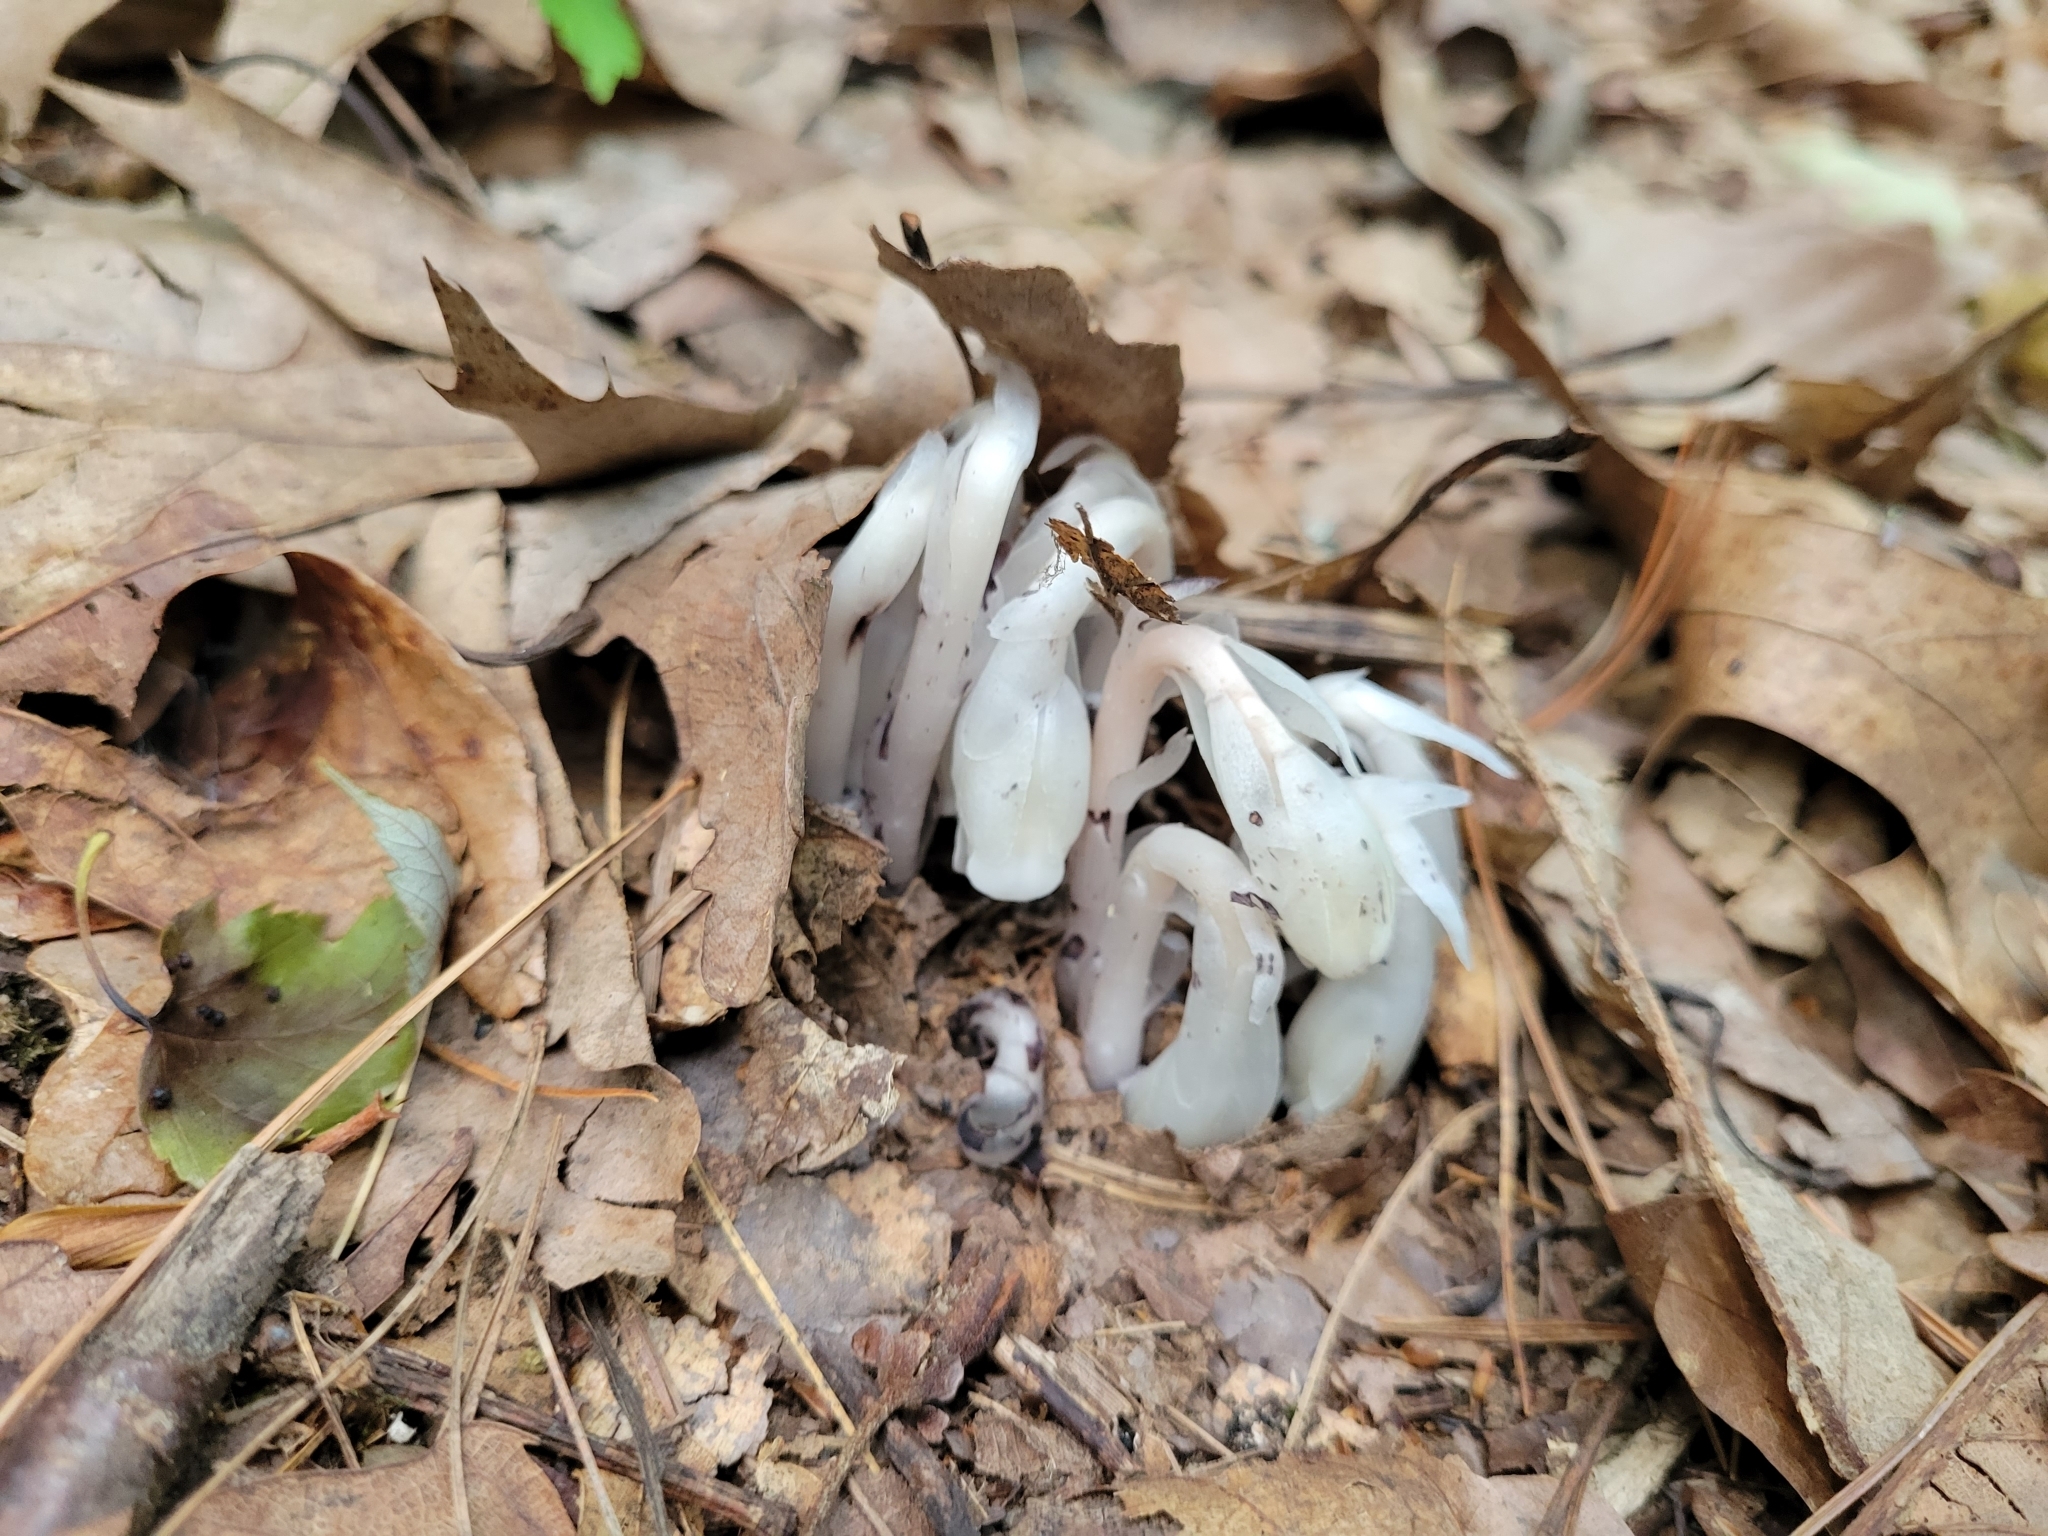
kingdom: Plantae
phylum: Tracheophyta
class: Magnoliopsida
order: Ericales
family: Ericaceae
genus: Monotropa
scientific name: Monotropa uniflora
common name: Convulsion root
